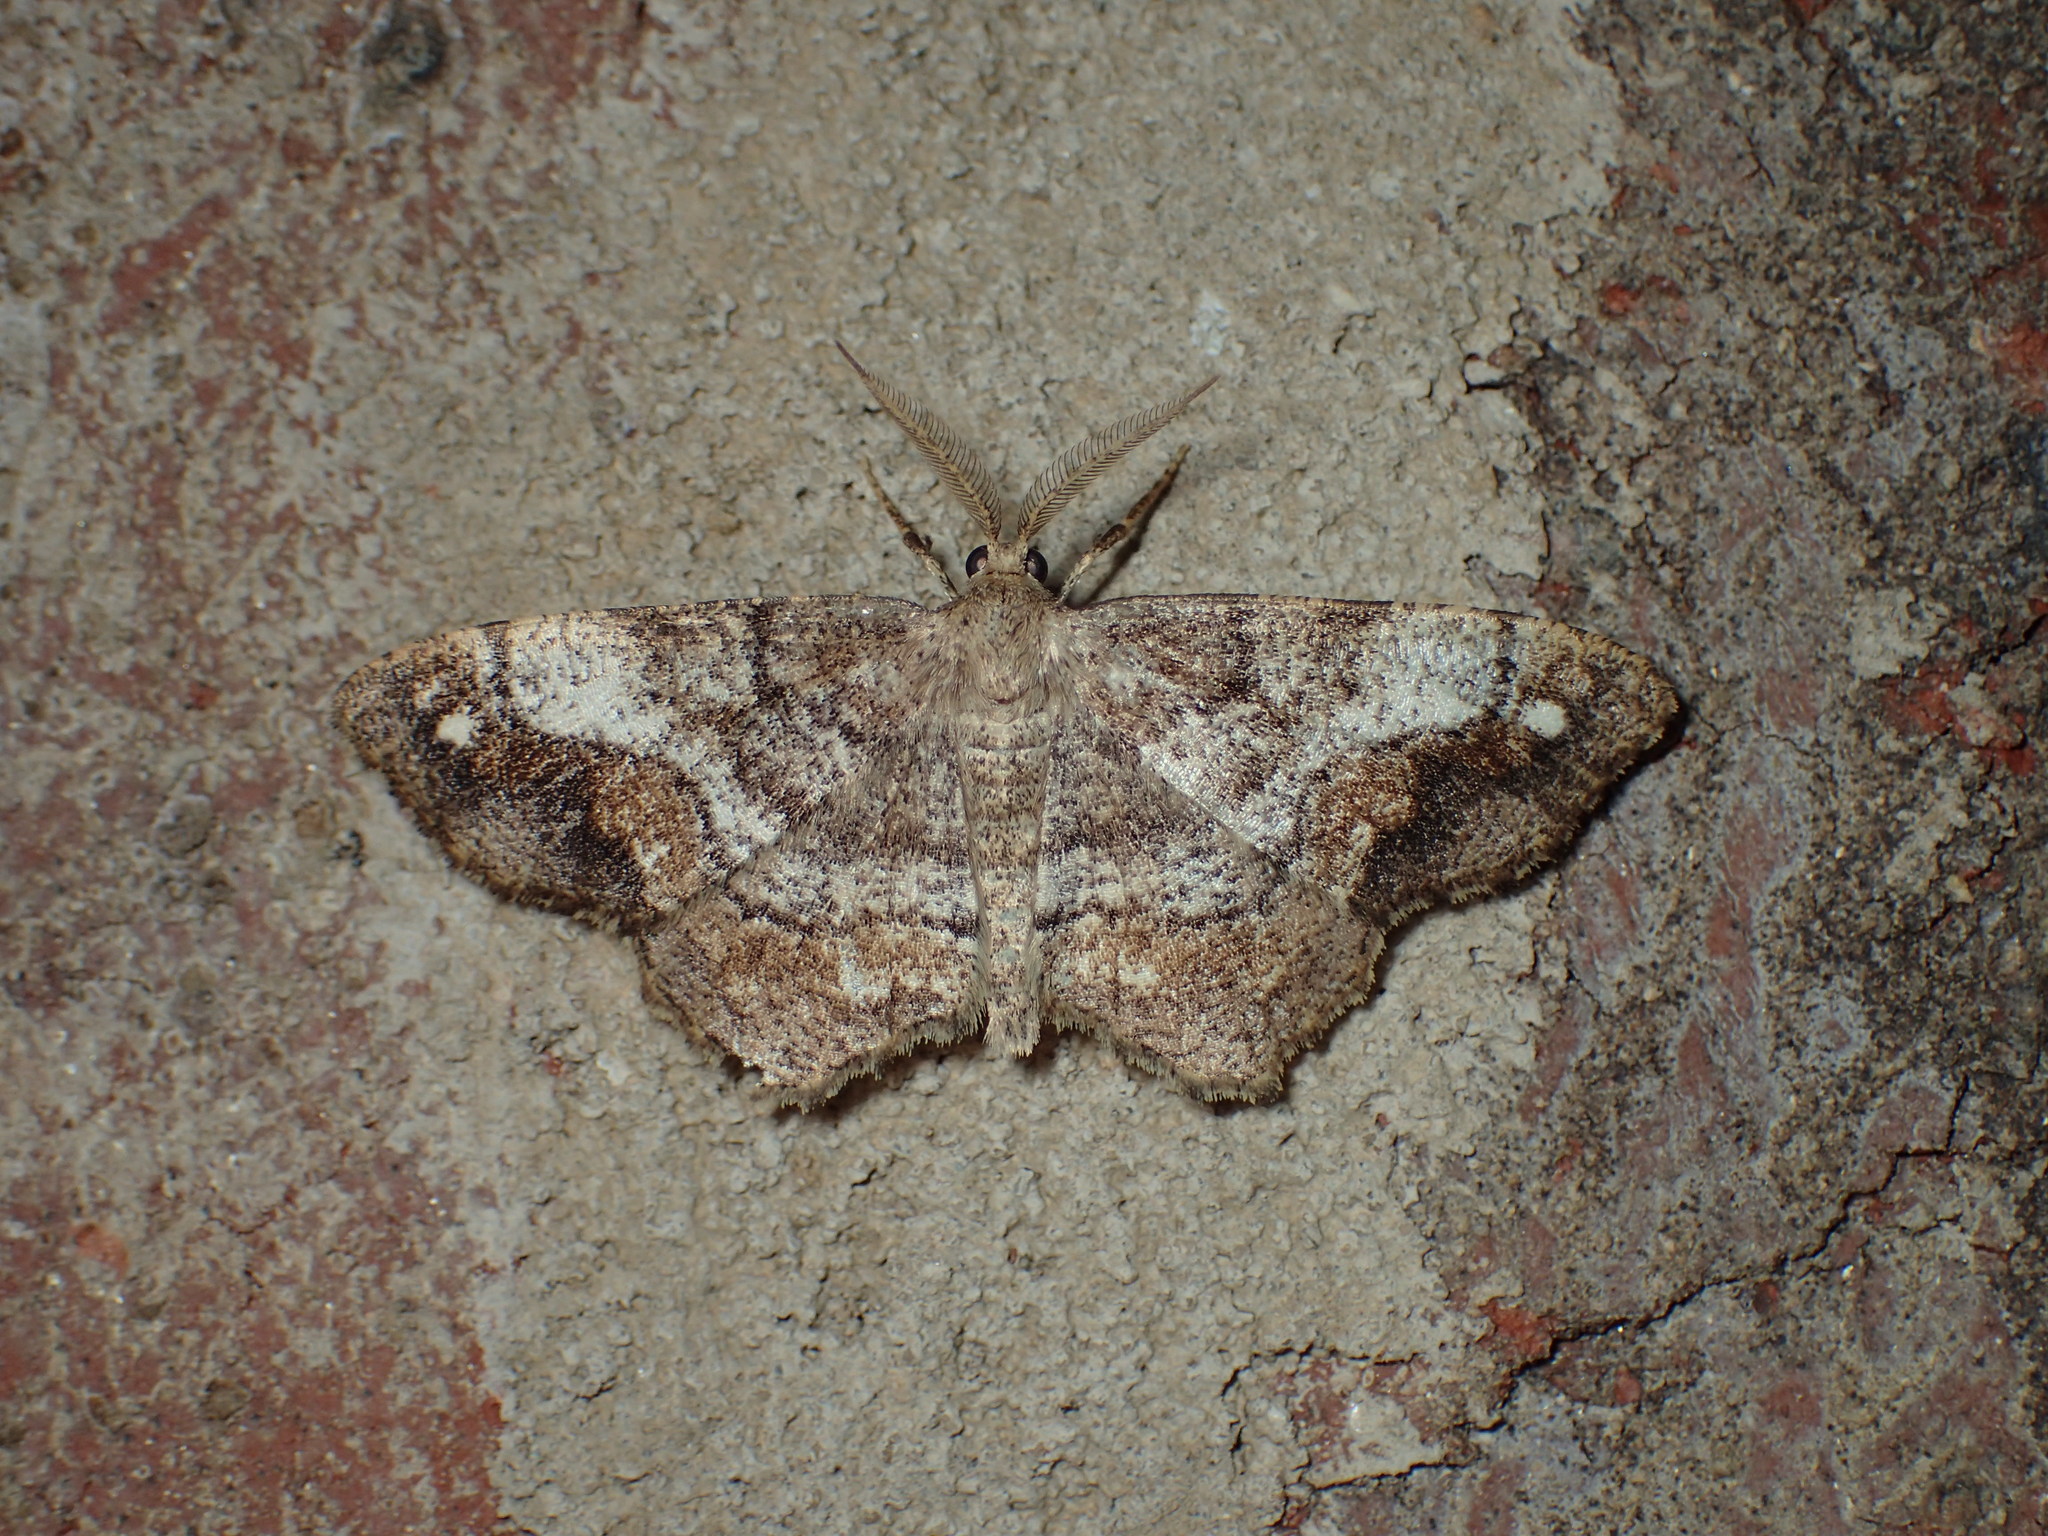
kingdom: Animalia
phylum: Arthropoda
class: Insecta
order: Lepidoptera
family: Geometridae
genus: Hypagyrtis
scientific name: Hypagyrtis unipunctata
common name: One-spotted variant
